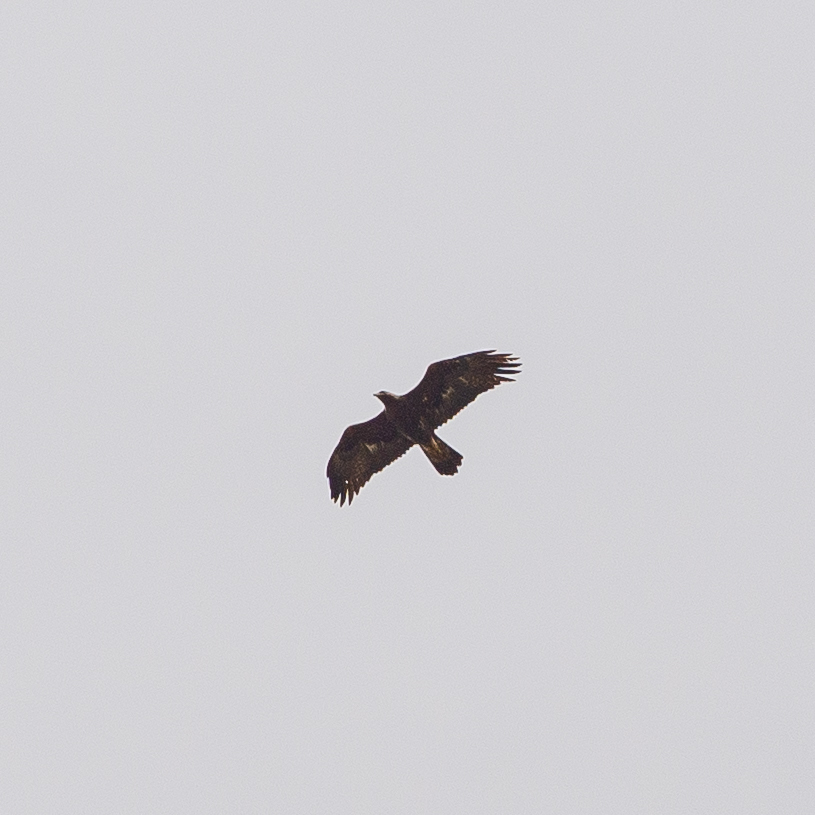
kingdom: Animalia
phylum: Chordata
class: Aves
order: Accipitriformes
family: Accipitridae
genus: Aquila
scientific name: Aquila chrysaetos
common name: Golden eagle
